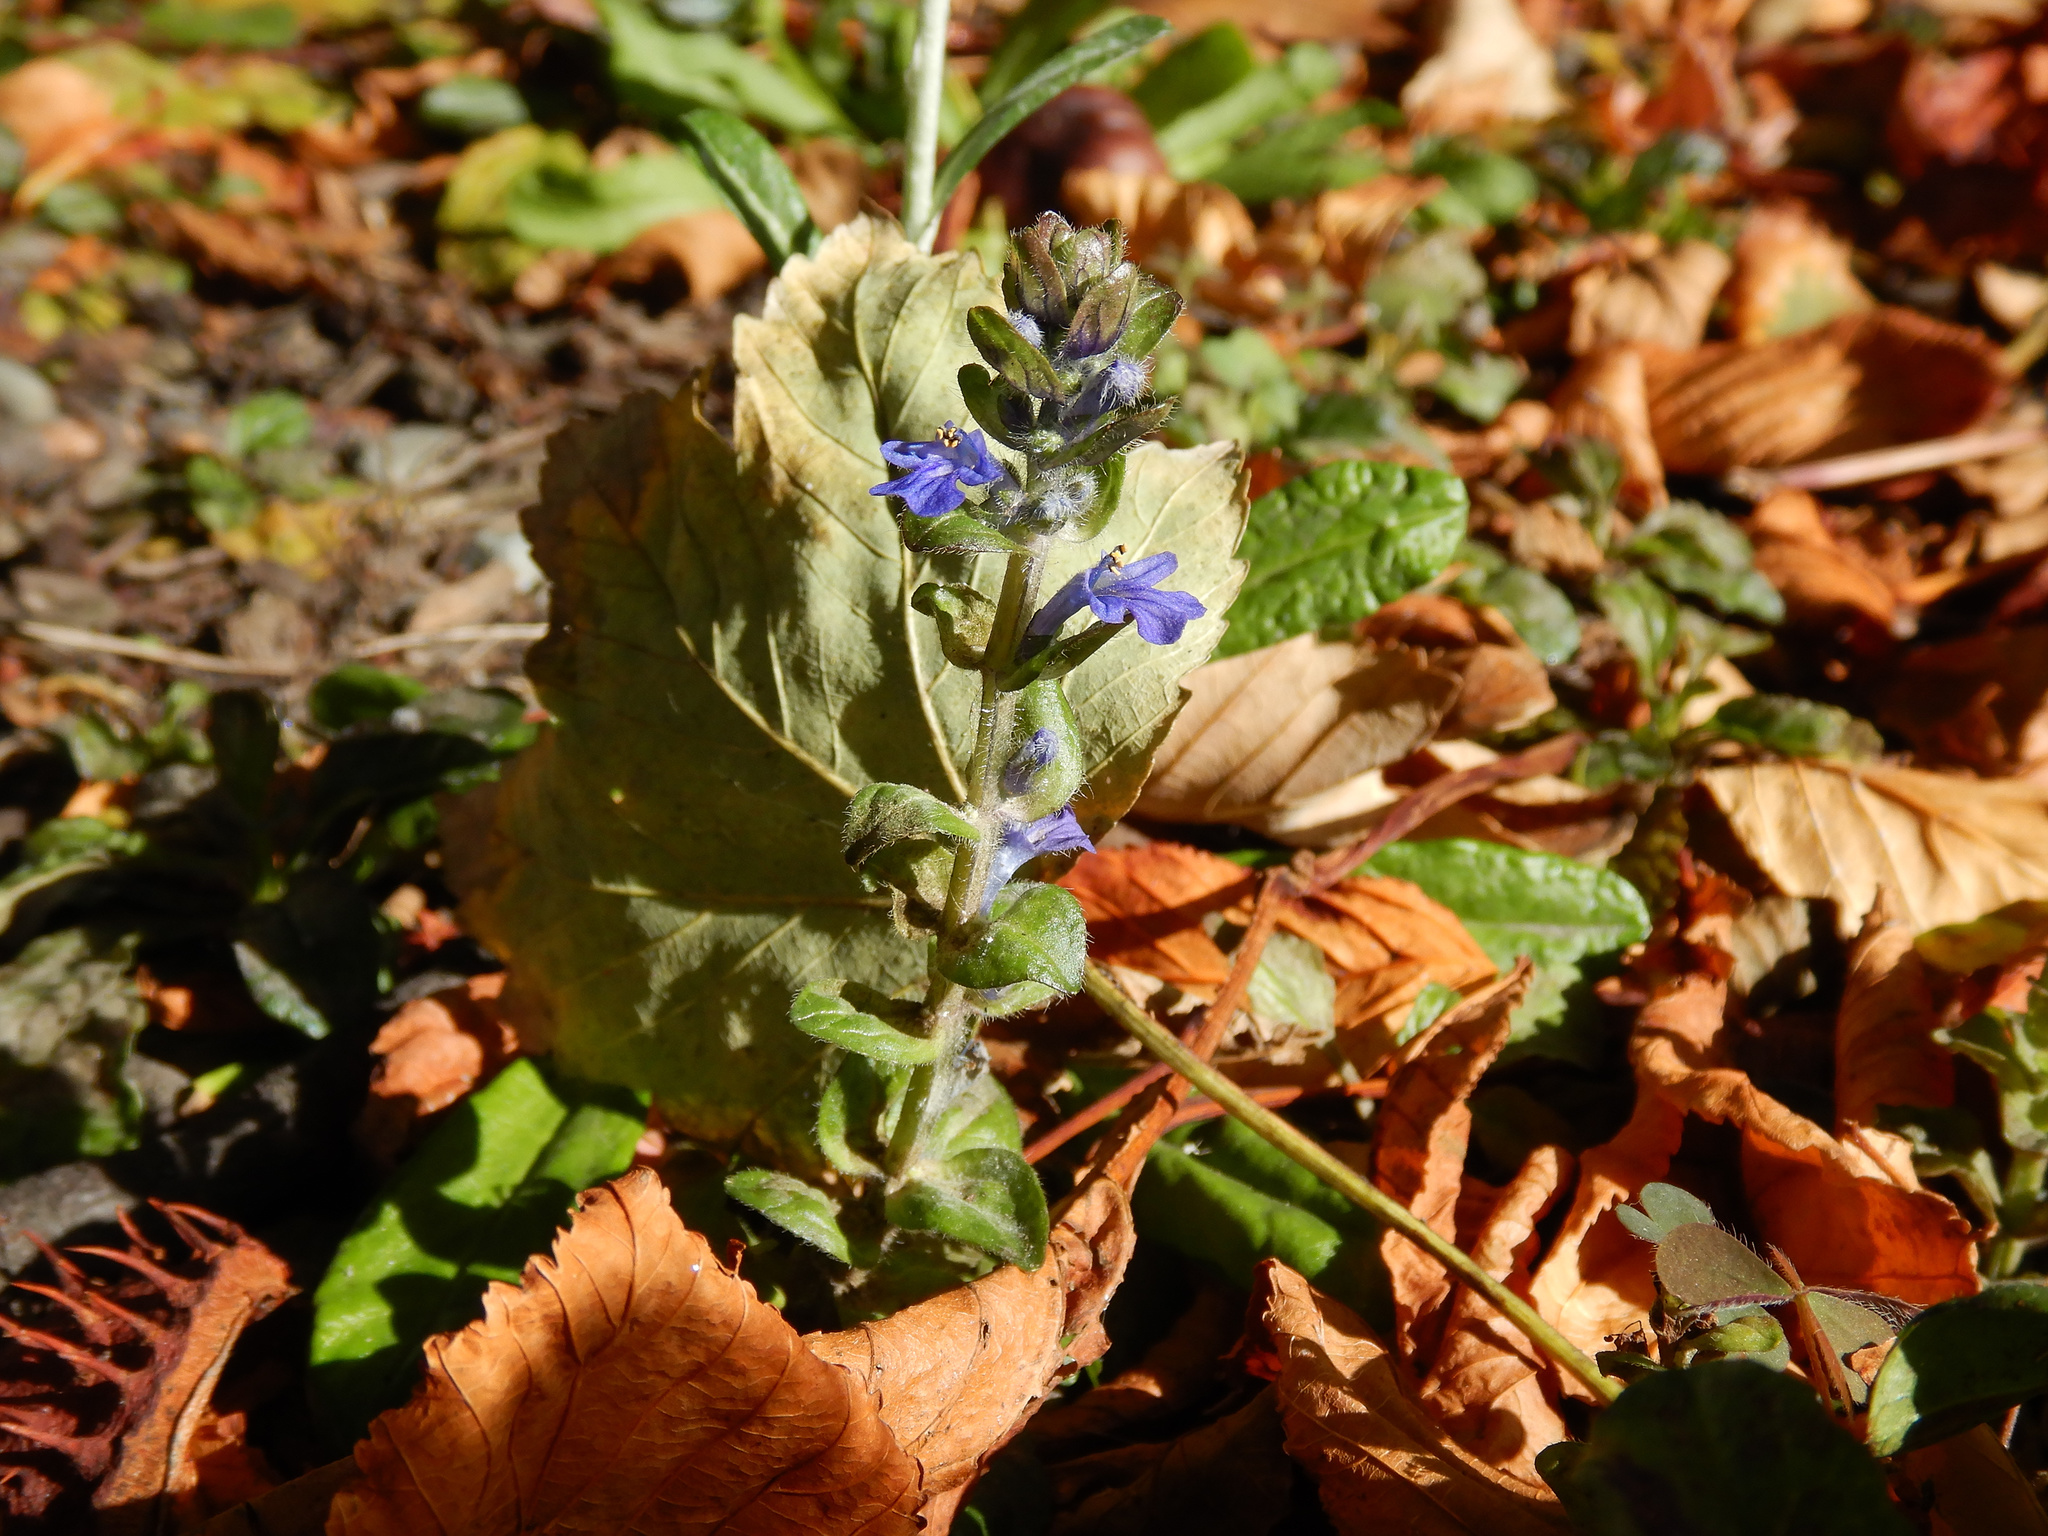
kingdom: Plantae
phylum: Tracheophyta
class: Magnoliopsida
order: Lamiales
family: Lamiaceae
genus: Ajuga
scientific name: Ajuga reptans
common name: Bugle
